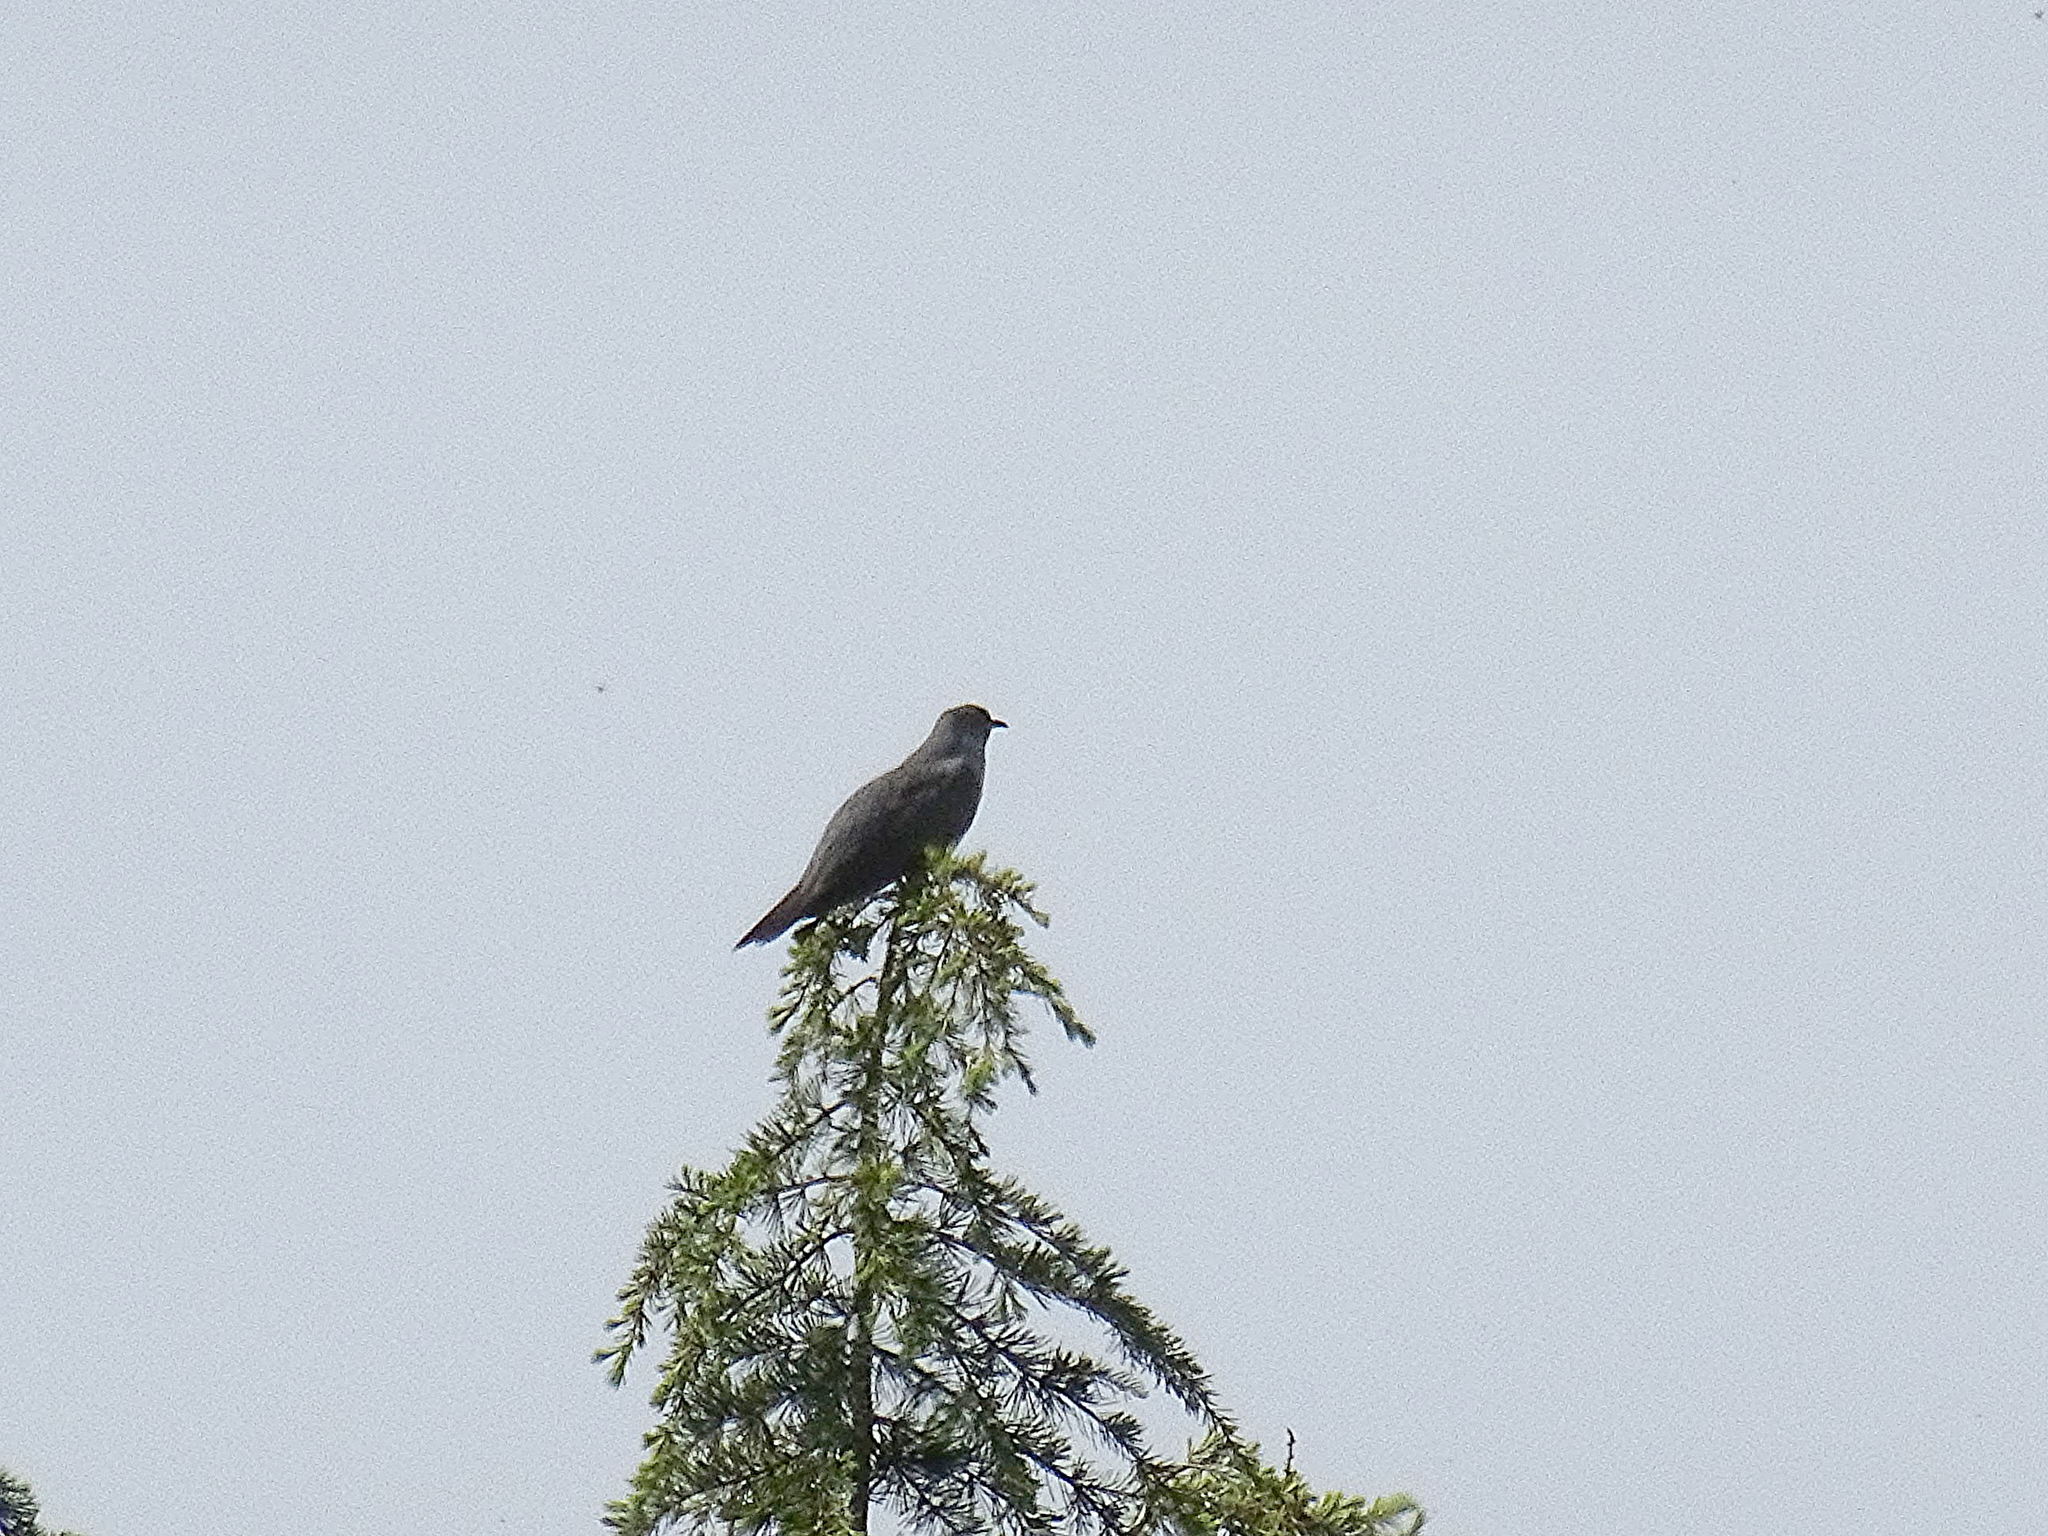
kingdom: Animalia
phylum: Chordata
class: Aves
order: Cuculiformes
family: Cuculidae
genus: Cuculus
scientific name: Cuculus canorus
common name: Common cuckoo
